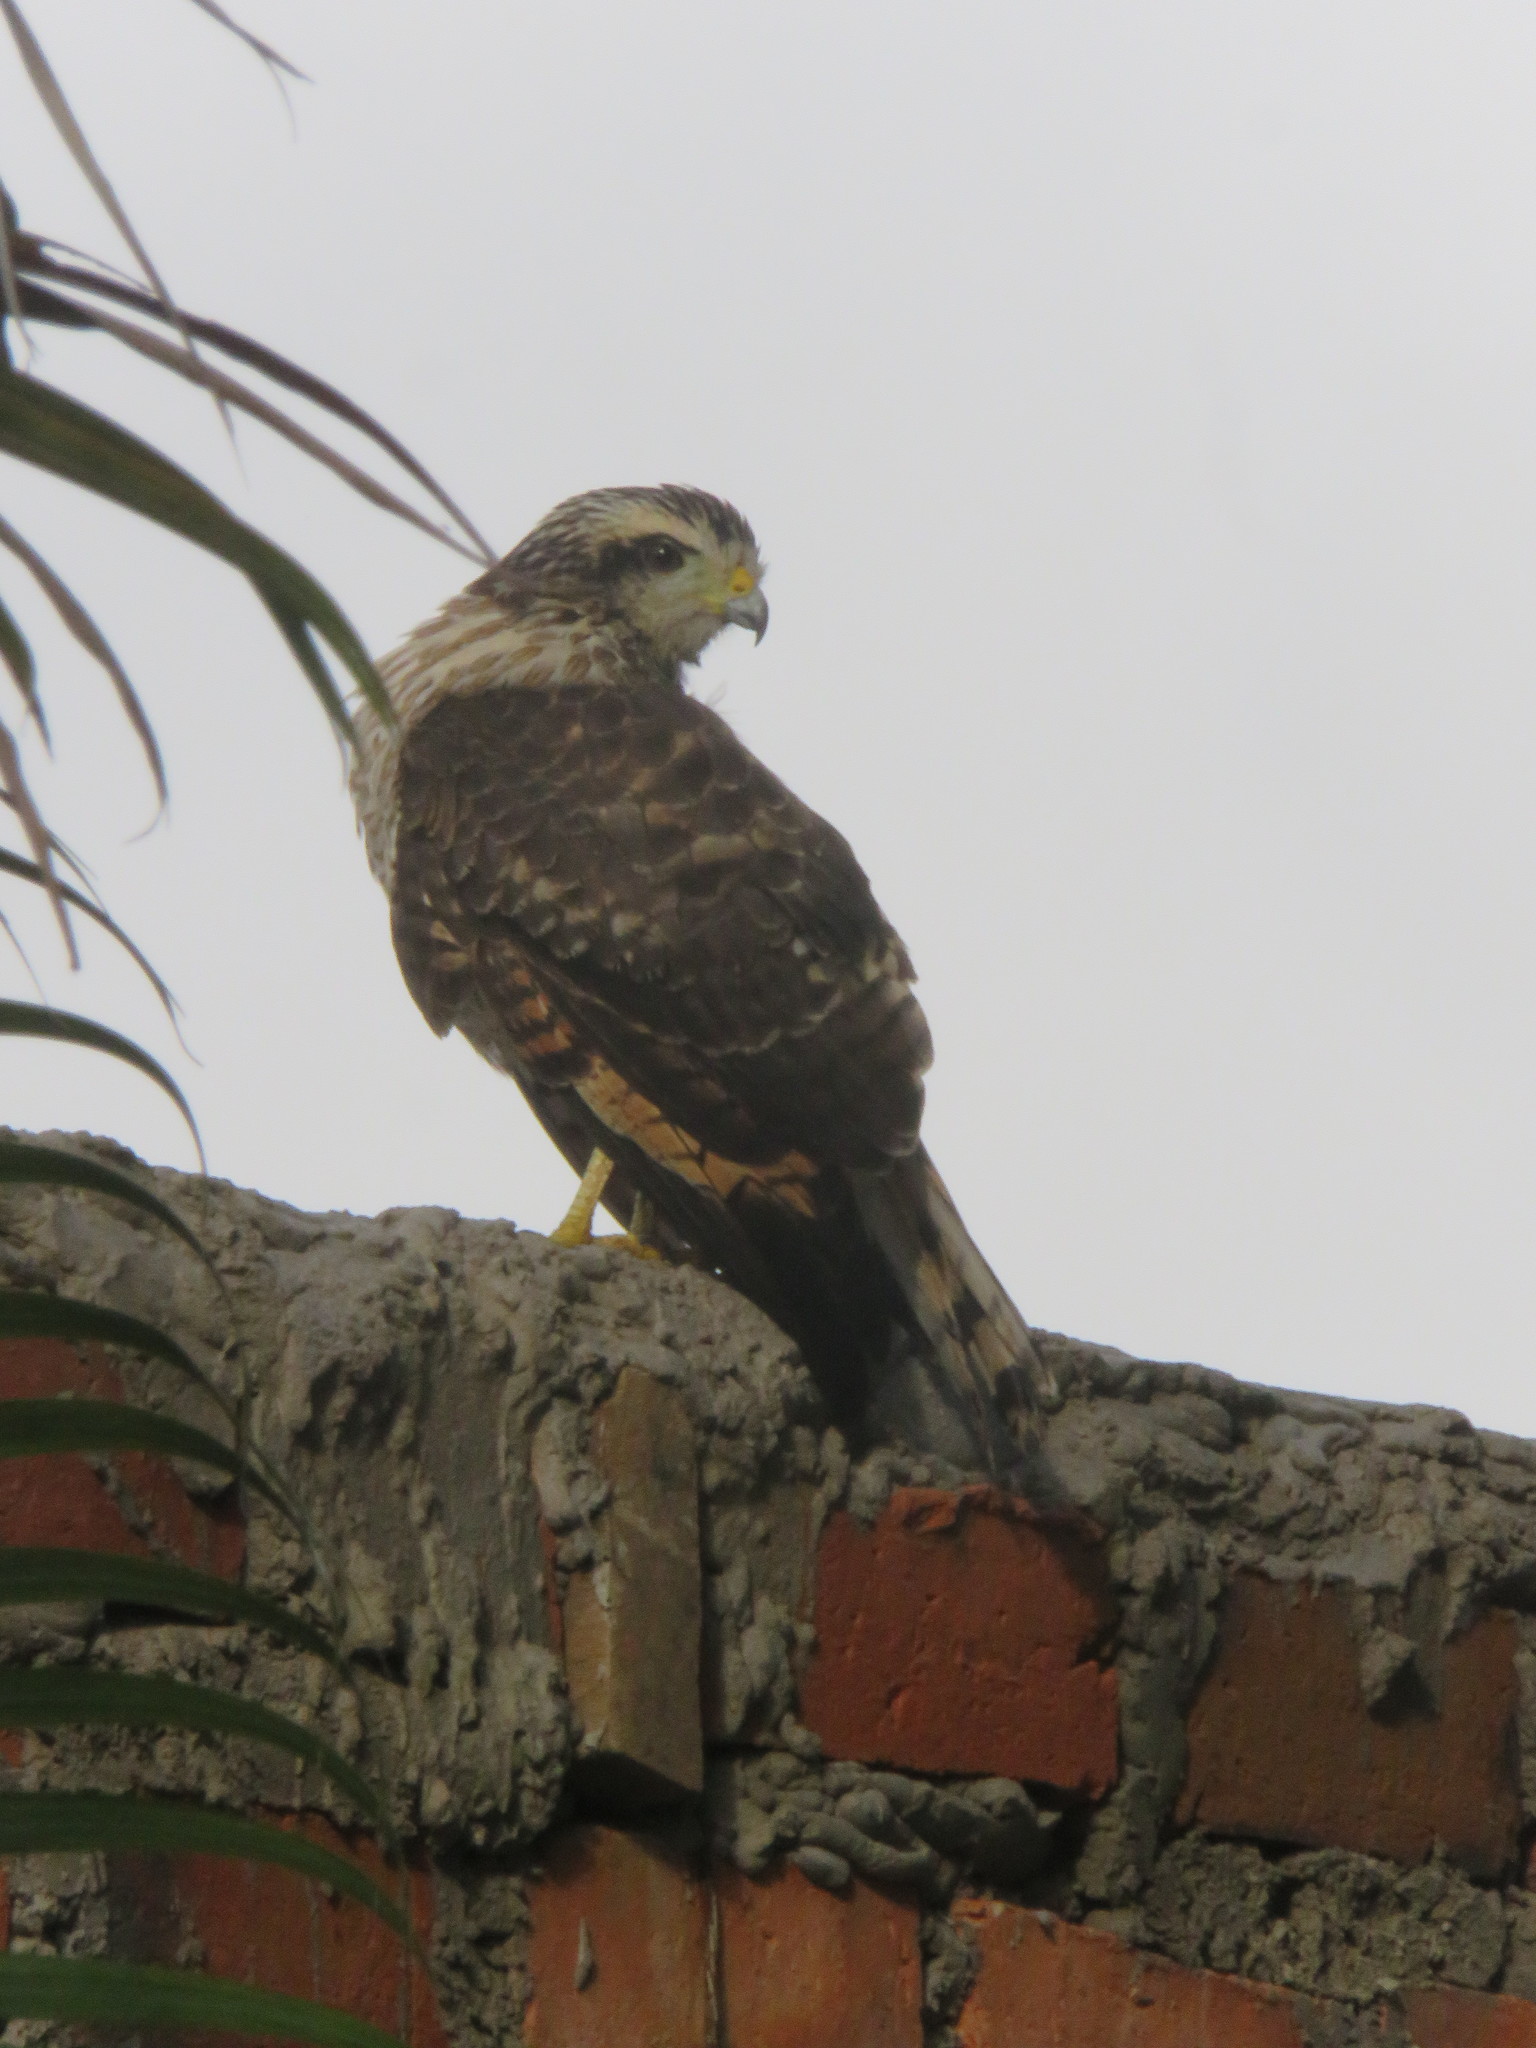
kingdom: Animalia
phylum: Chordata
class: Aves
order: Accipitriformes
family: Accipitridae
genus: Rupornis
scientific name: Rupornis magnirostris
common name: Roadside hawk
